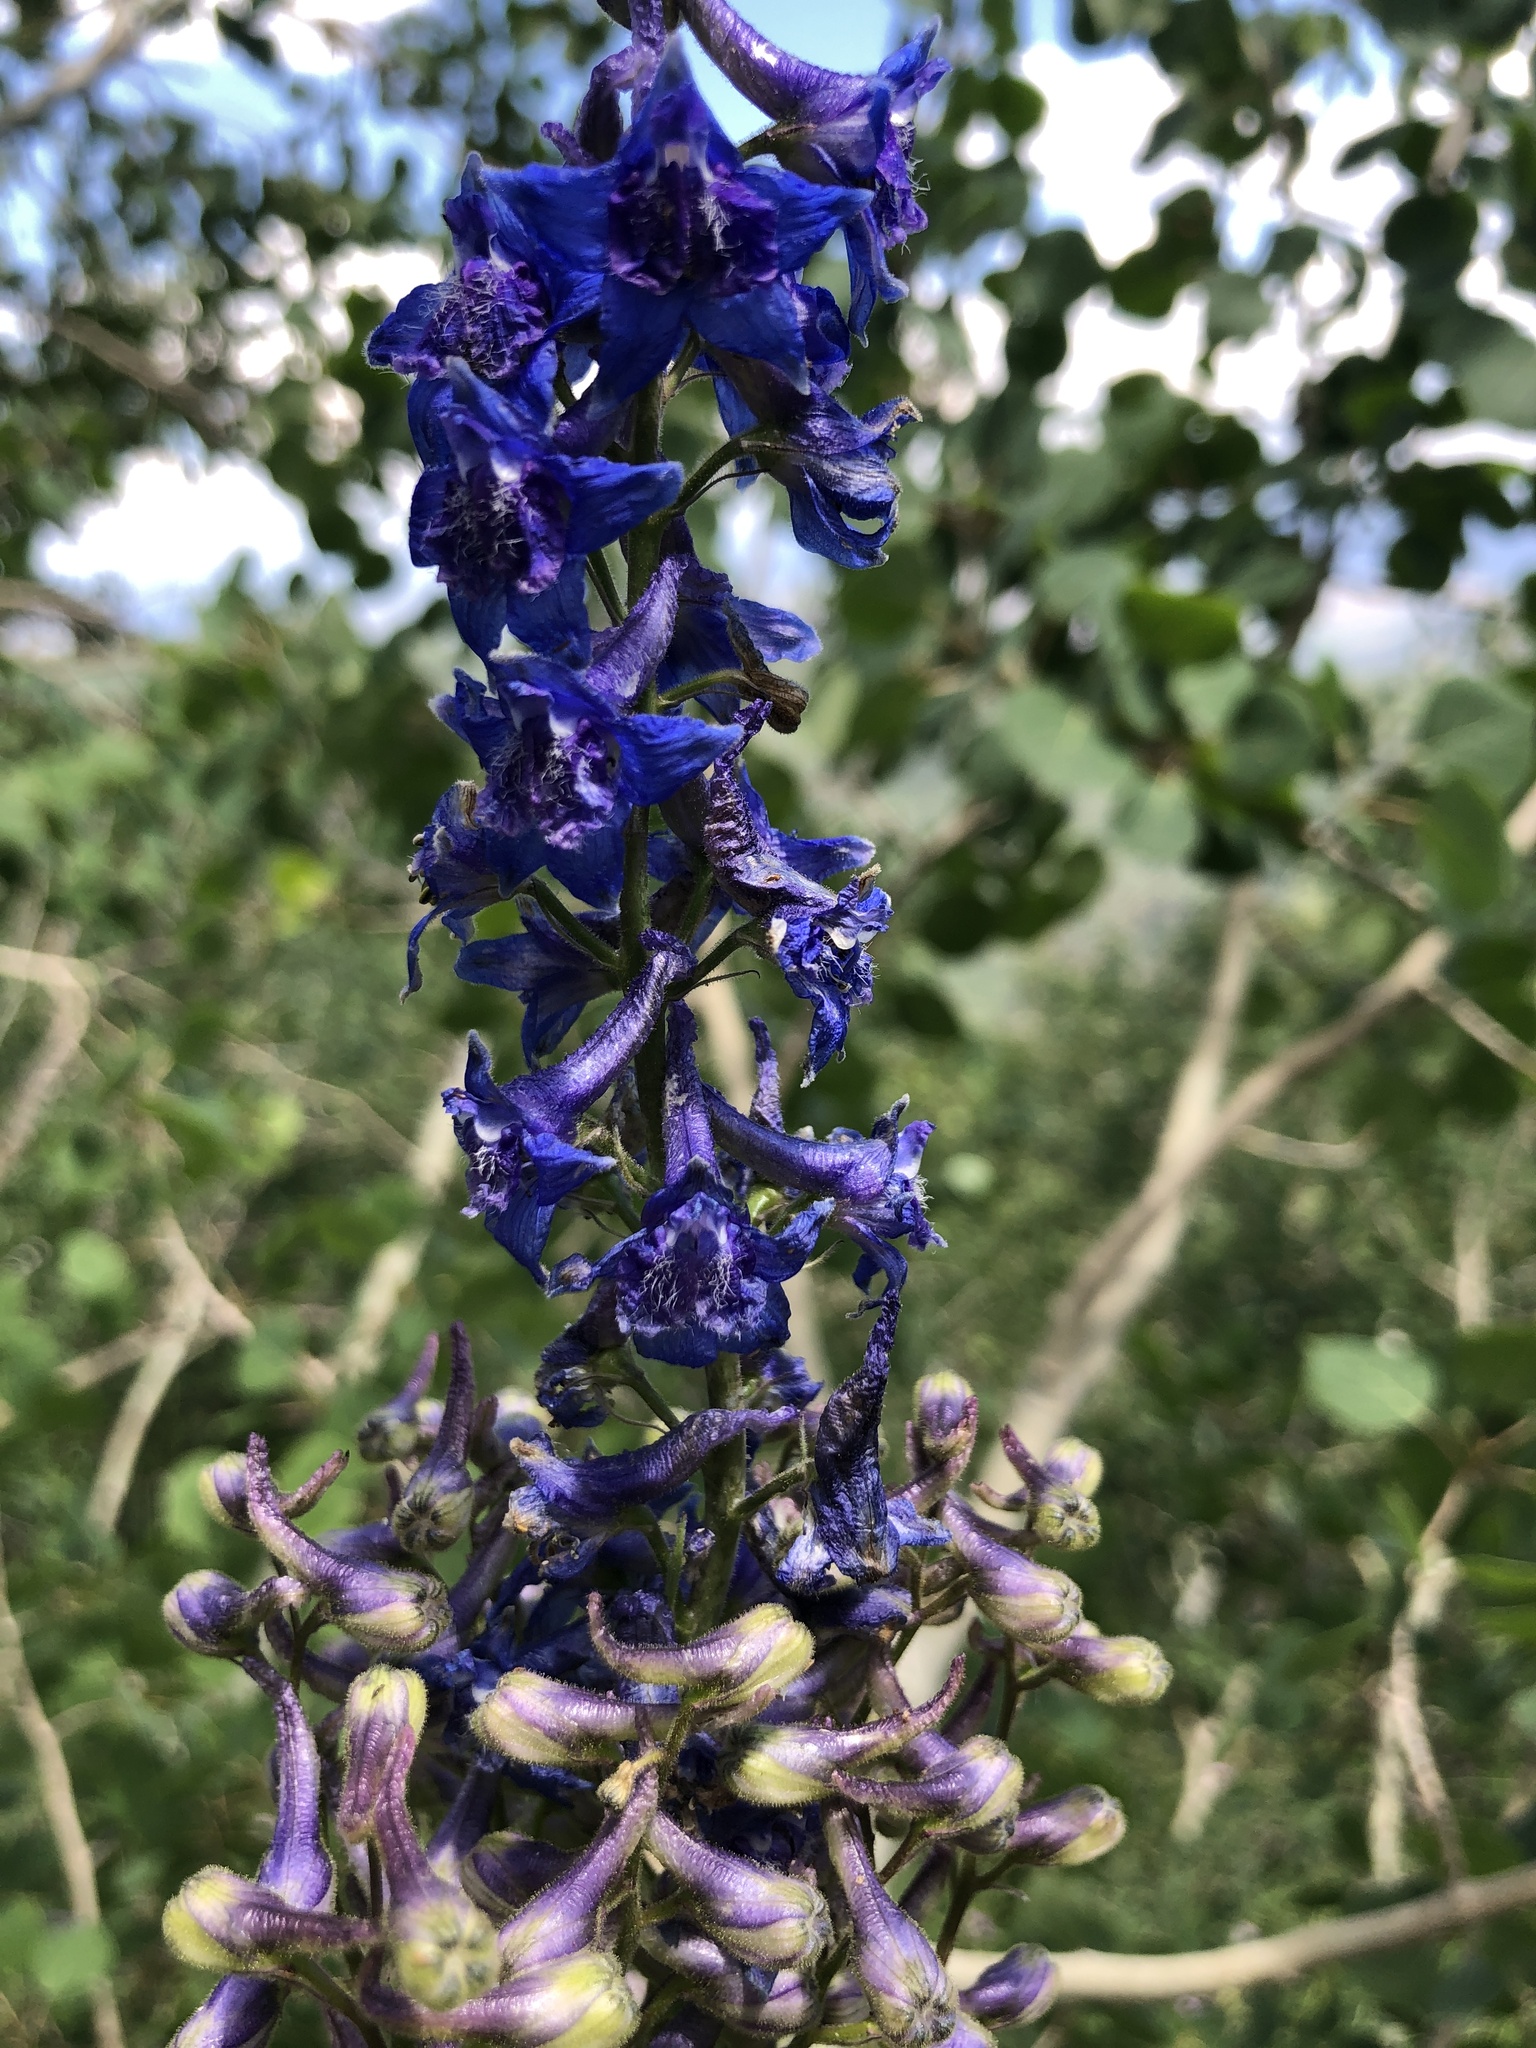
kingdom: Plantae
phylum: Tracheophyta
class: Magnoliopsida
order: Ranunculales
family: Ranunculaceae
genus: Delphinium
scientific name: Delphinium occidentale
